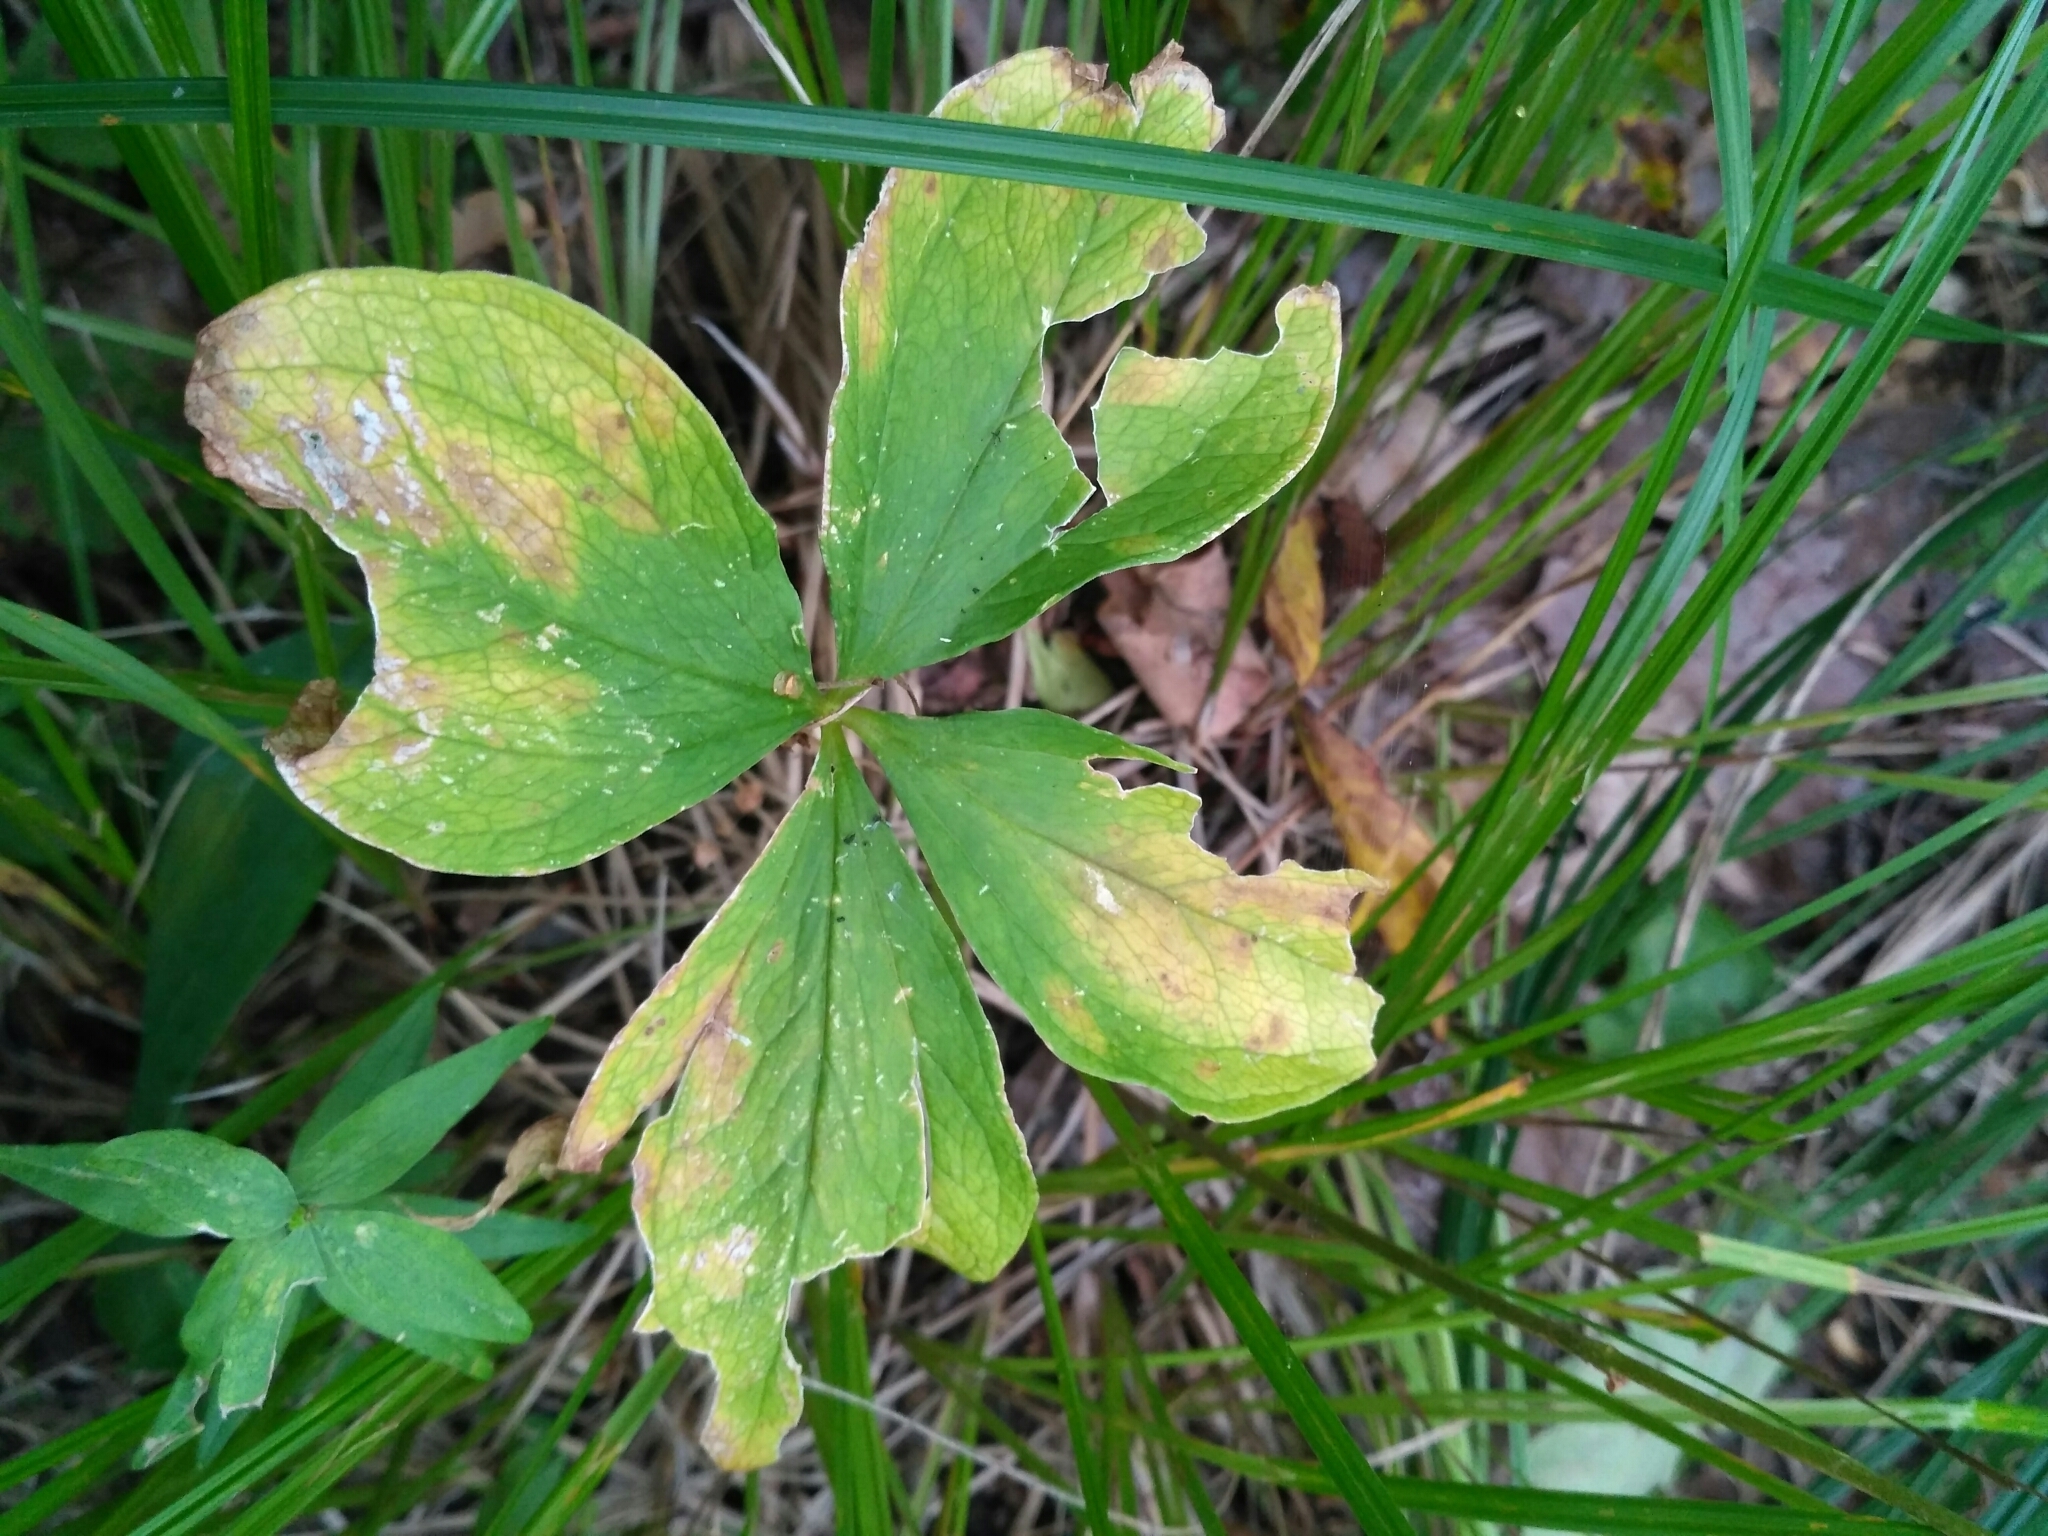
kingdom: Plantae
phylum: Tracheophyta
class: Liliopsida
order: Liliales
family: Melanthiaceae
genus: Paris
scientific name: Paris quadrifolia
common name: Herb-paris
